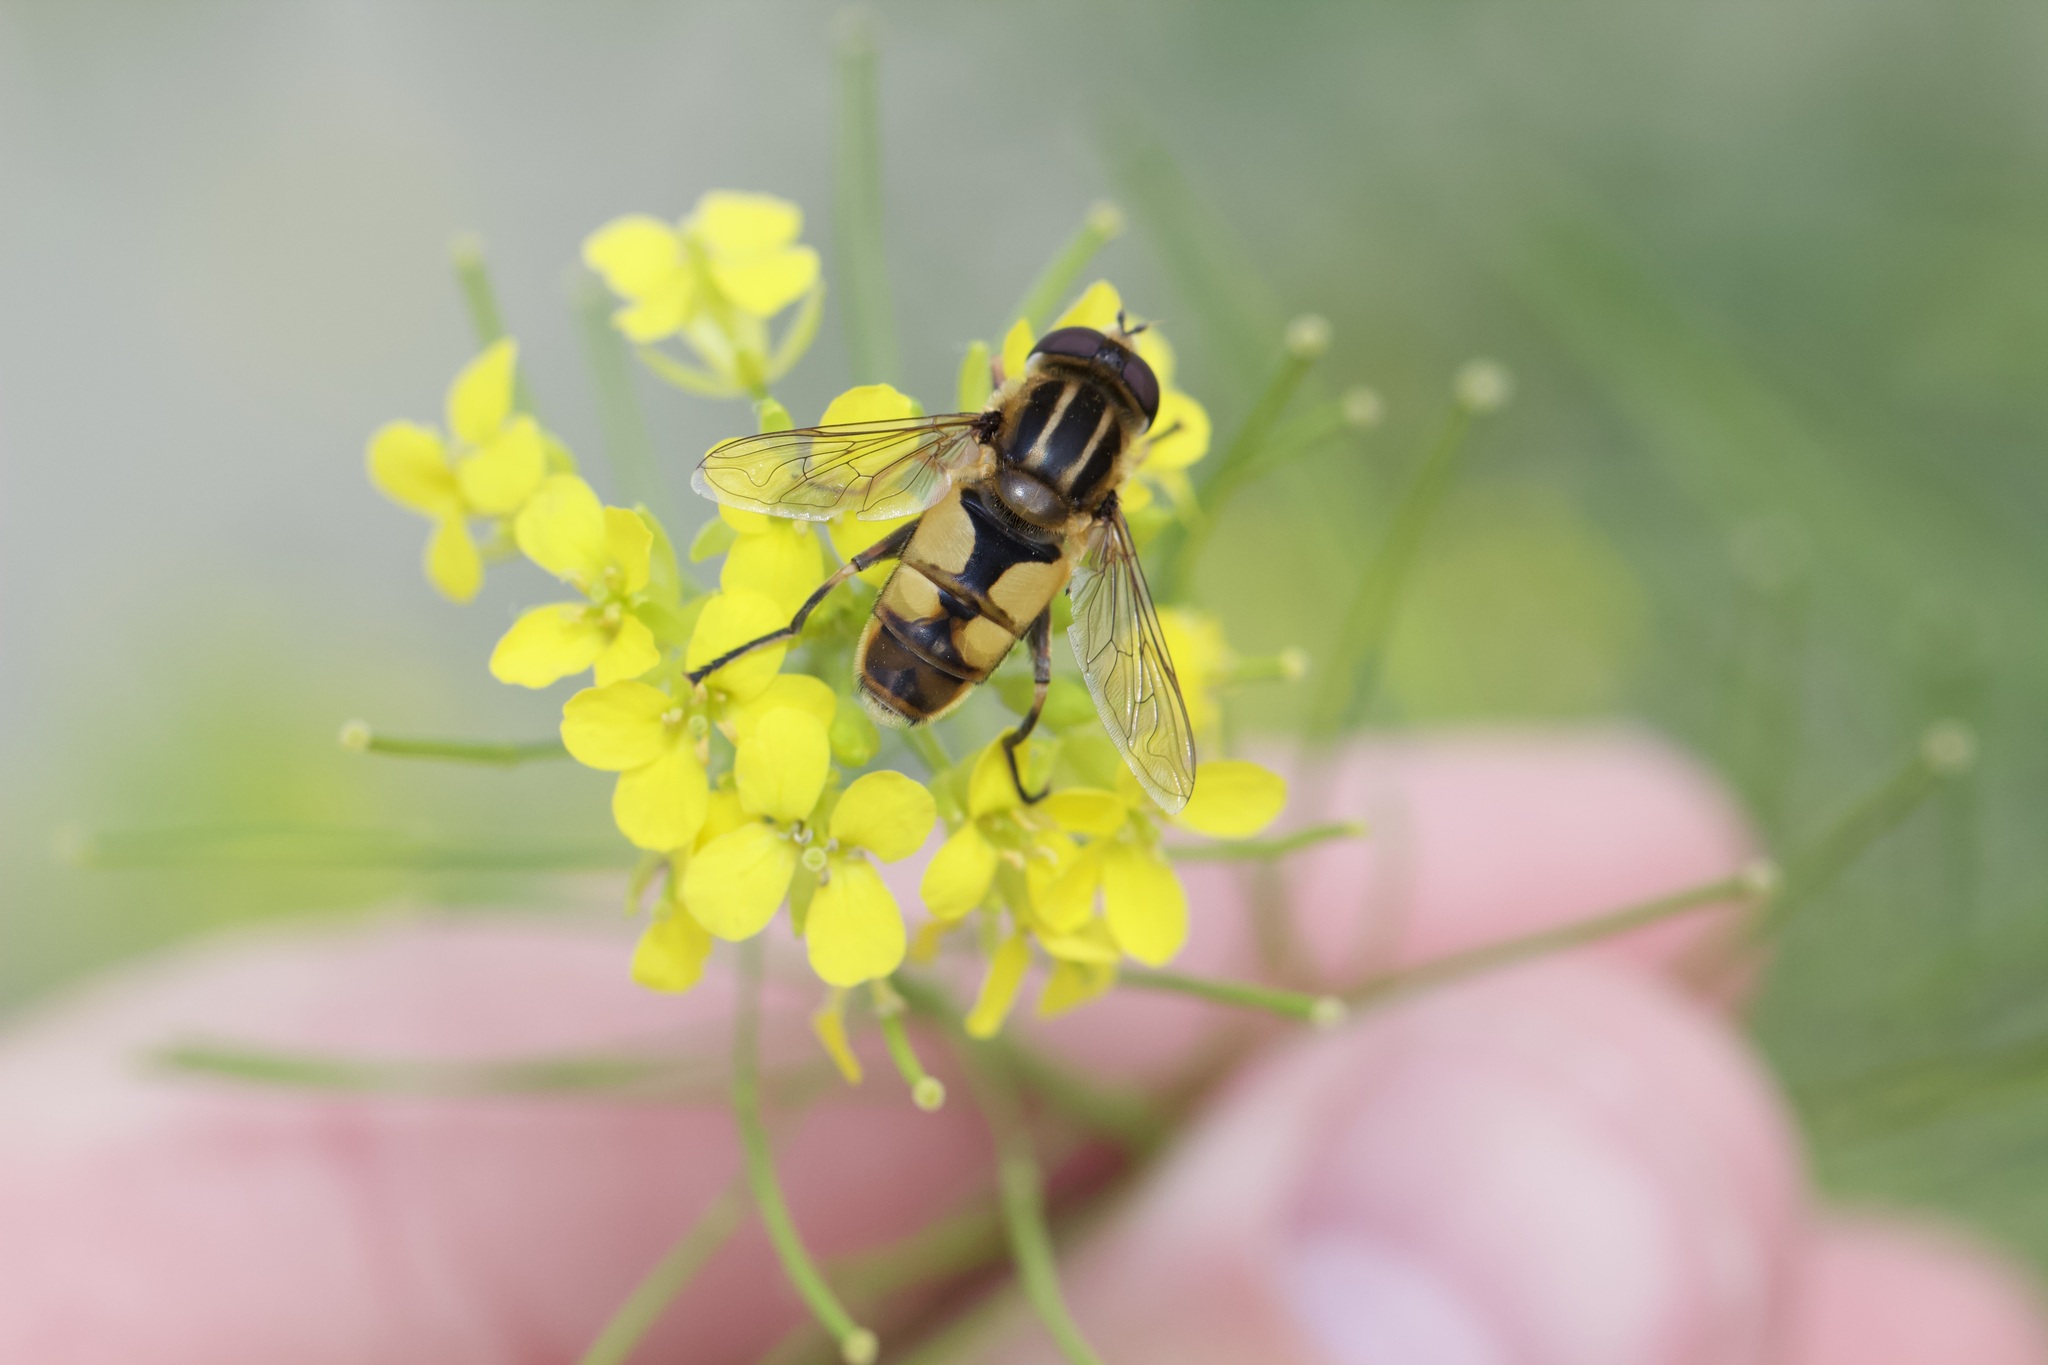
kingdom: Animalia
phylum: Arthropoda
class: Insecta
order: Diptera
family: Syrphidae
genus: Helophilus
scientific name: Helophilus hybridus
